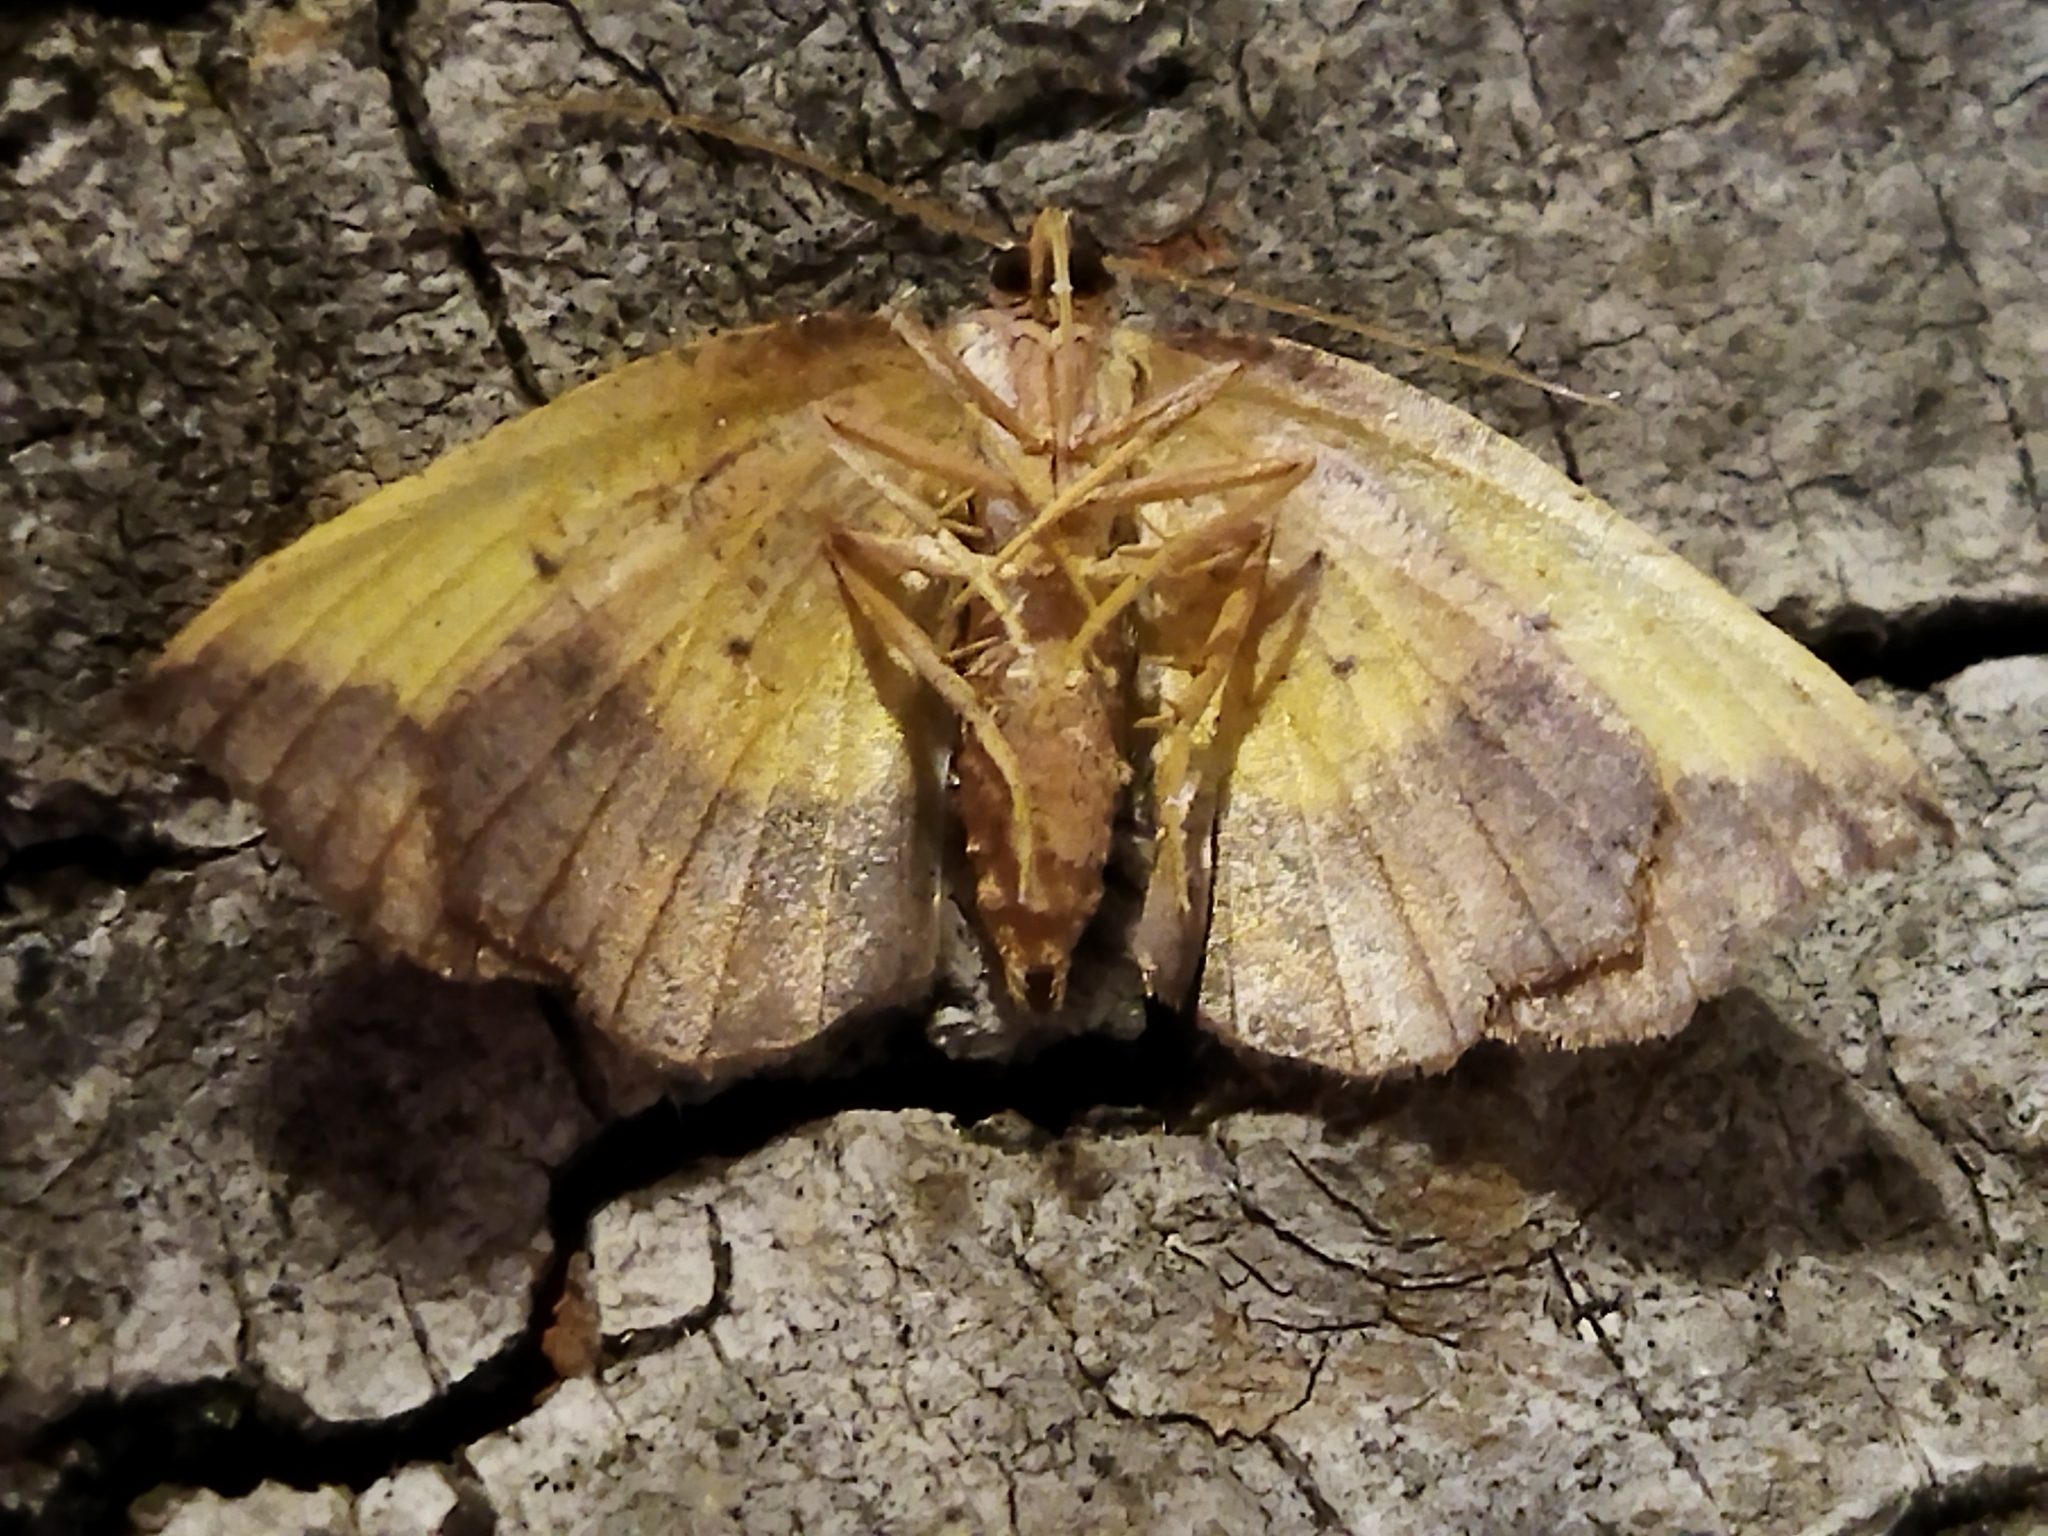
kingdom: Animalia
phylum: Arthropoda
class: Insecta
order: Lepidoptera
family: Geometridae
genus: Epione
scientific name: Epione repandaria
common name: Bordered beauty
